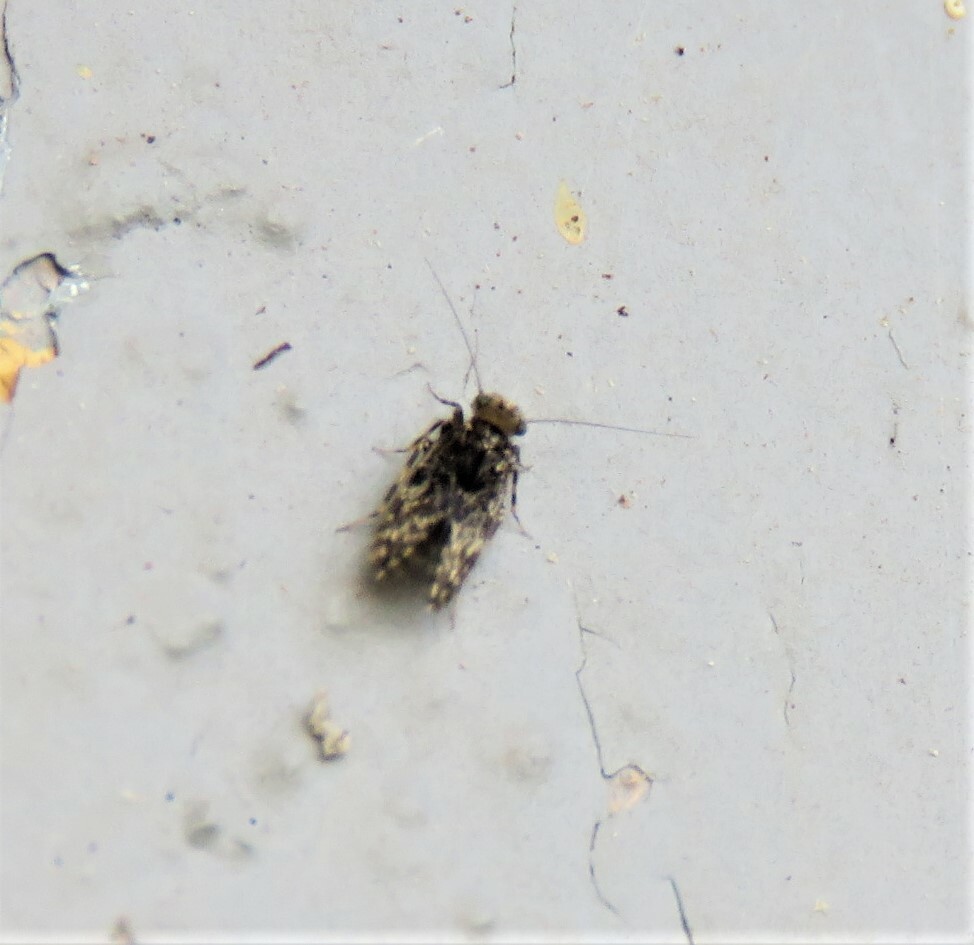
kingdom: Animalia
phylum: Arthropoda
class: Insecta
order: Psocodea
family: Lepidopsocidae
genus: Echmepteryx
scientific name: Echmepteryx hageni
